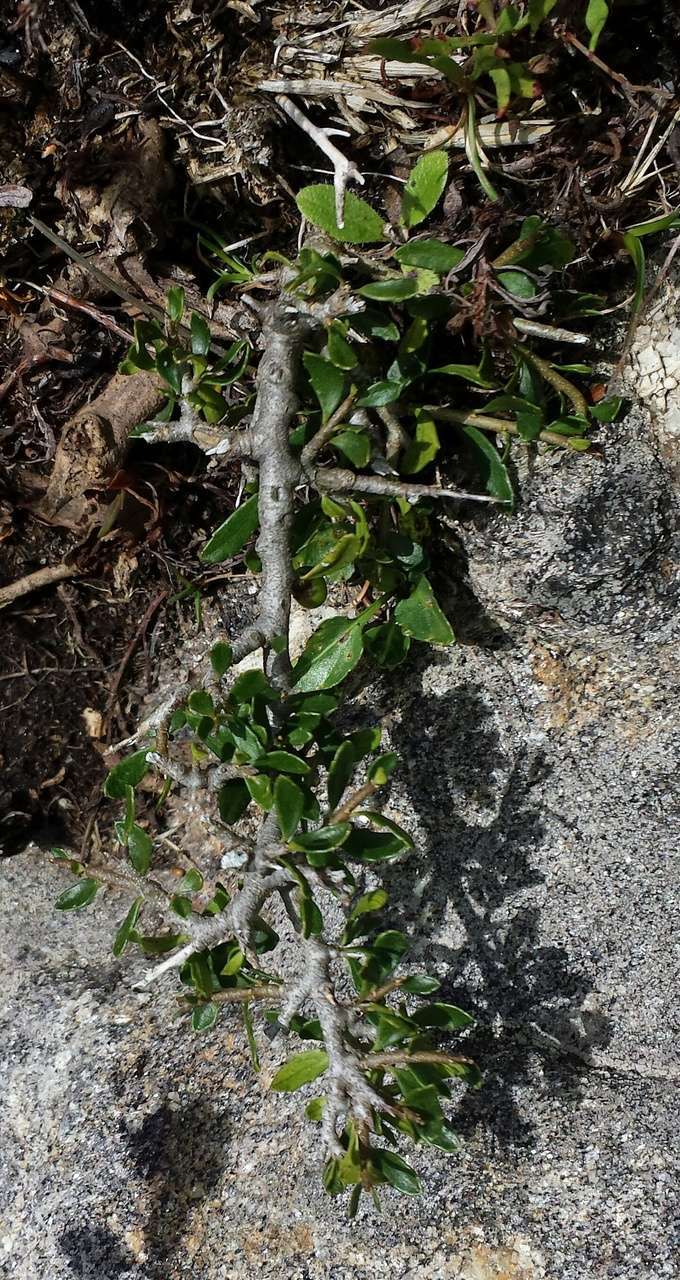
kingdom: Plantae
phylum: Tracheophyta
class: Magnoliopsida
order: Malpighiales
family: Violaceae
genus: Melicytus
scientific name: Melicytus angustifolius
